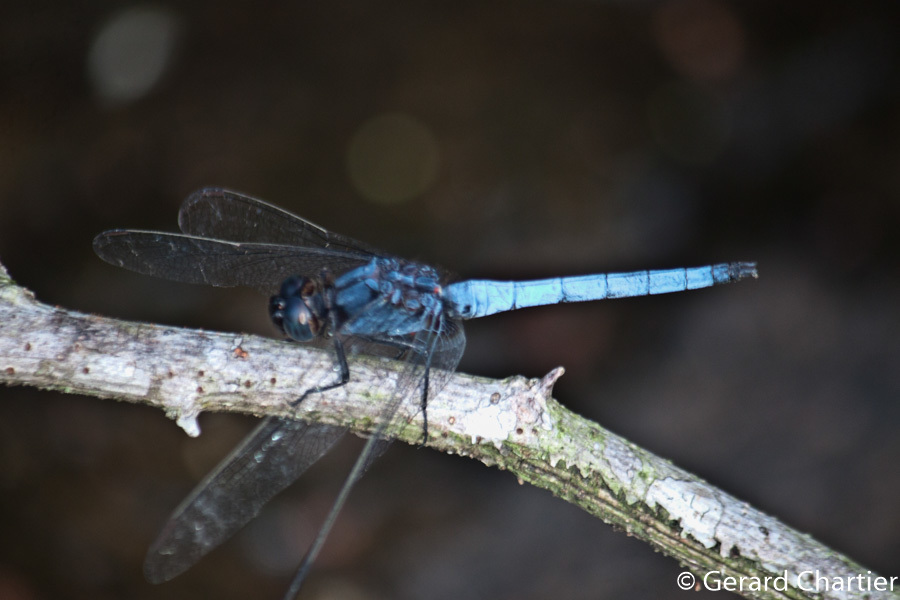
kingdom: Animalia
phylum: Arthropoda
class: Insecta
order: Odonata
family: Libellulidae
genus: Orthetrum
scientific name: Orthetrum glaucum
